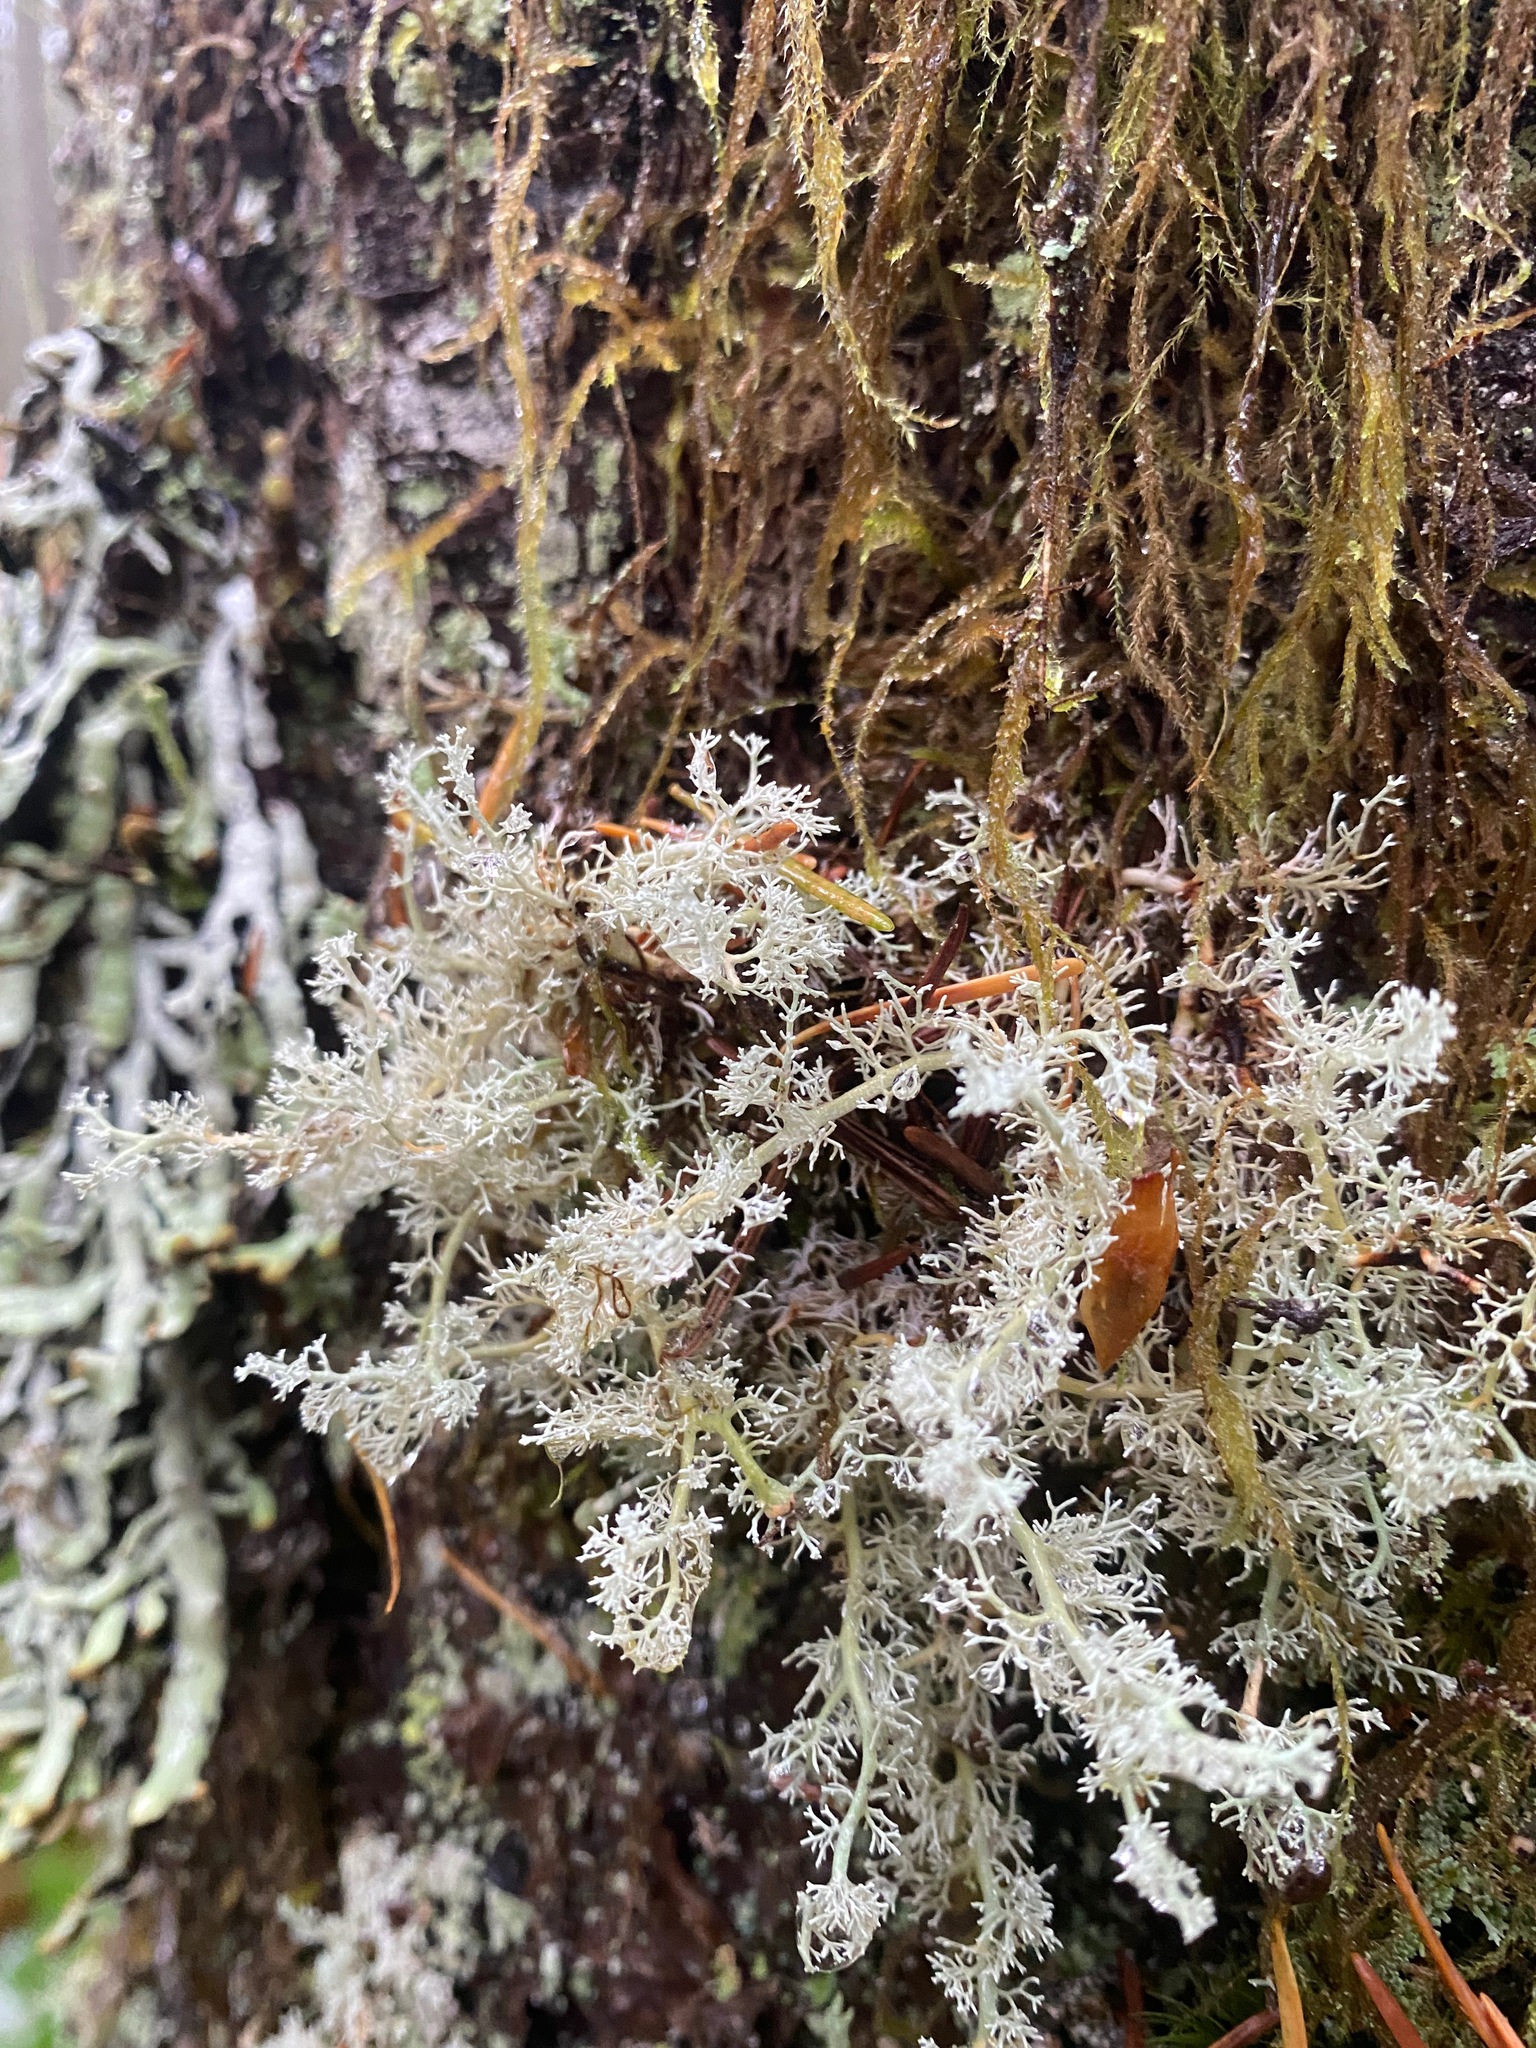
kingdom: Fungi
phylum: Ascomycota
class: Lecanoromycetes
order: Lecanorales
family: Sphaerophoraceae
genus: Sphaerophorus
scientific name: Sphaerophorus globosus
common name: Globe ball lichen
